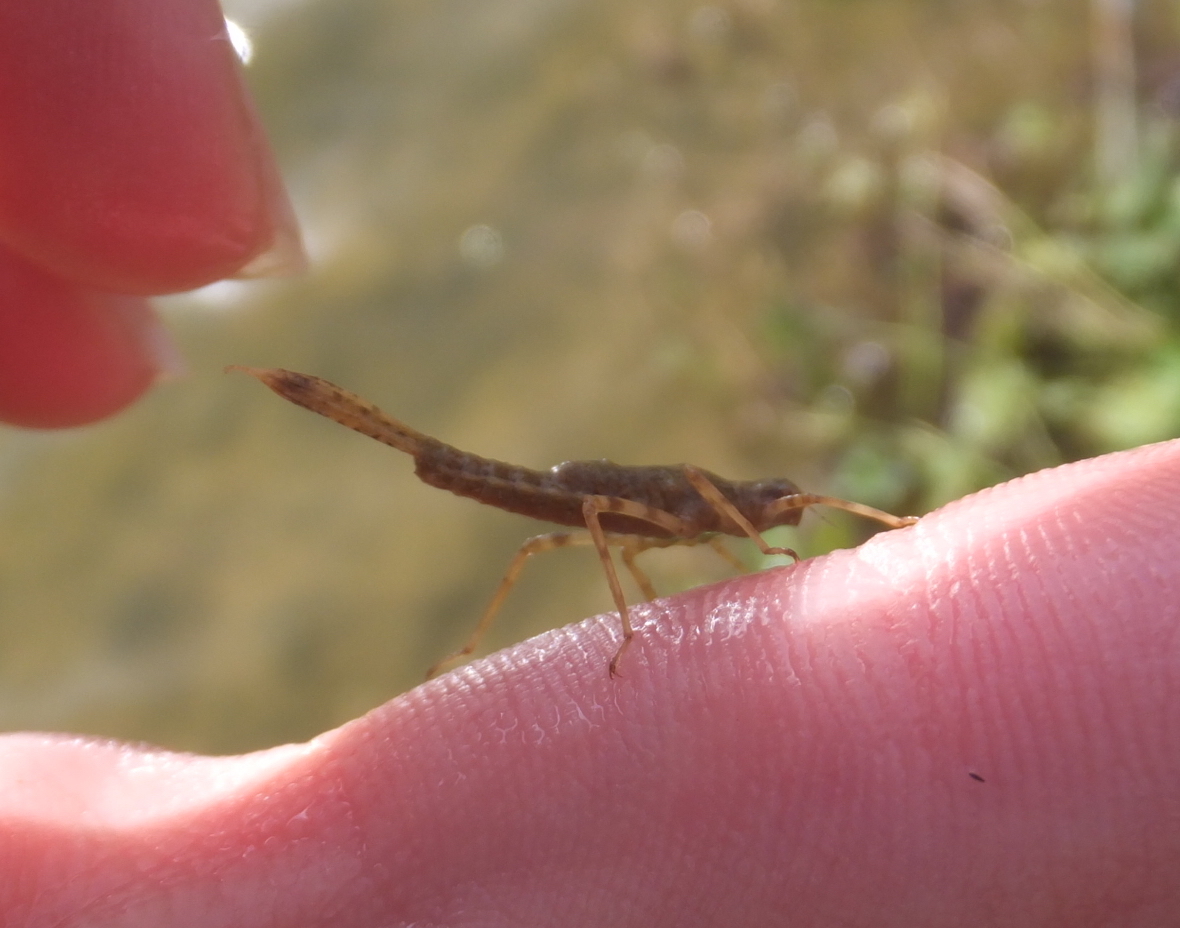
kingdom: Animalia
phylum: Arthropoda
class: Insecta
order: Odonata
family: Platycnemididae
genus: Platycnemis
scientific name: Platycnemis pennipes
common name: White-legged damselfly
